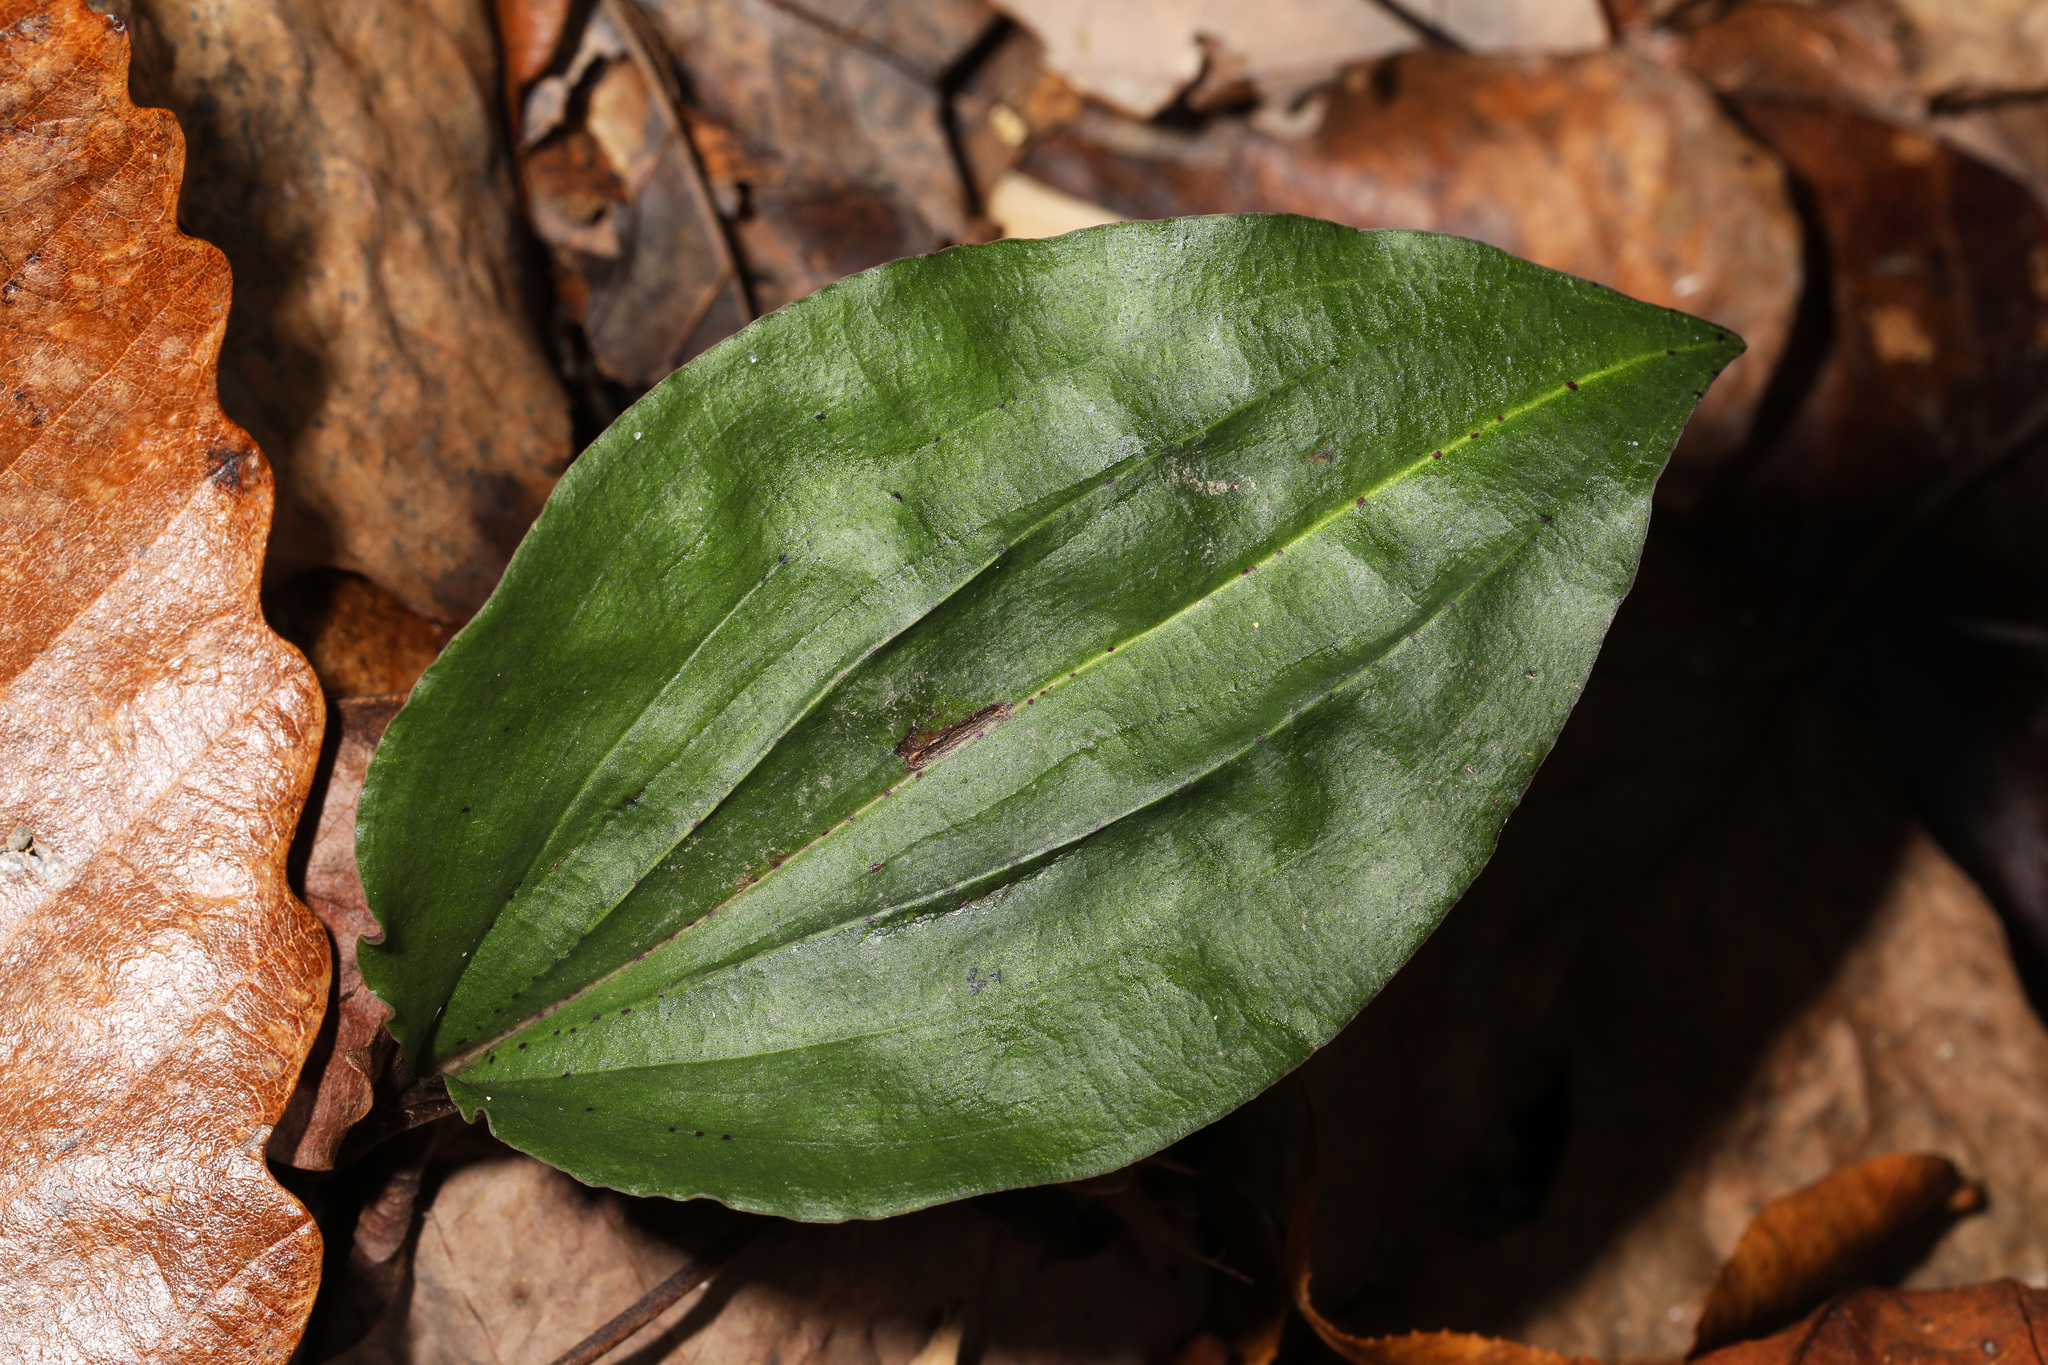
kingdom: Plantae
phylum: Tracheophyta
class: Liliopsida
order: Asparagales
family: Orchidaceae
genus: Tipularia
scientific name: Tipularia discolor
